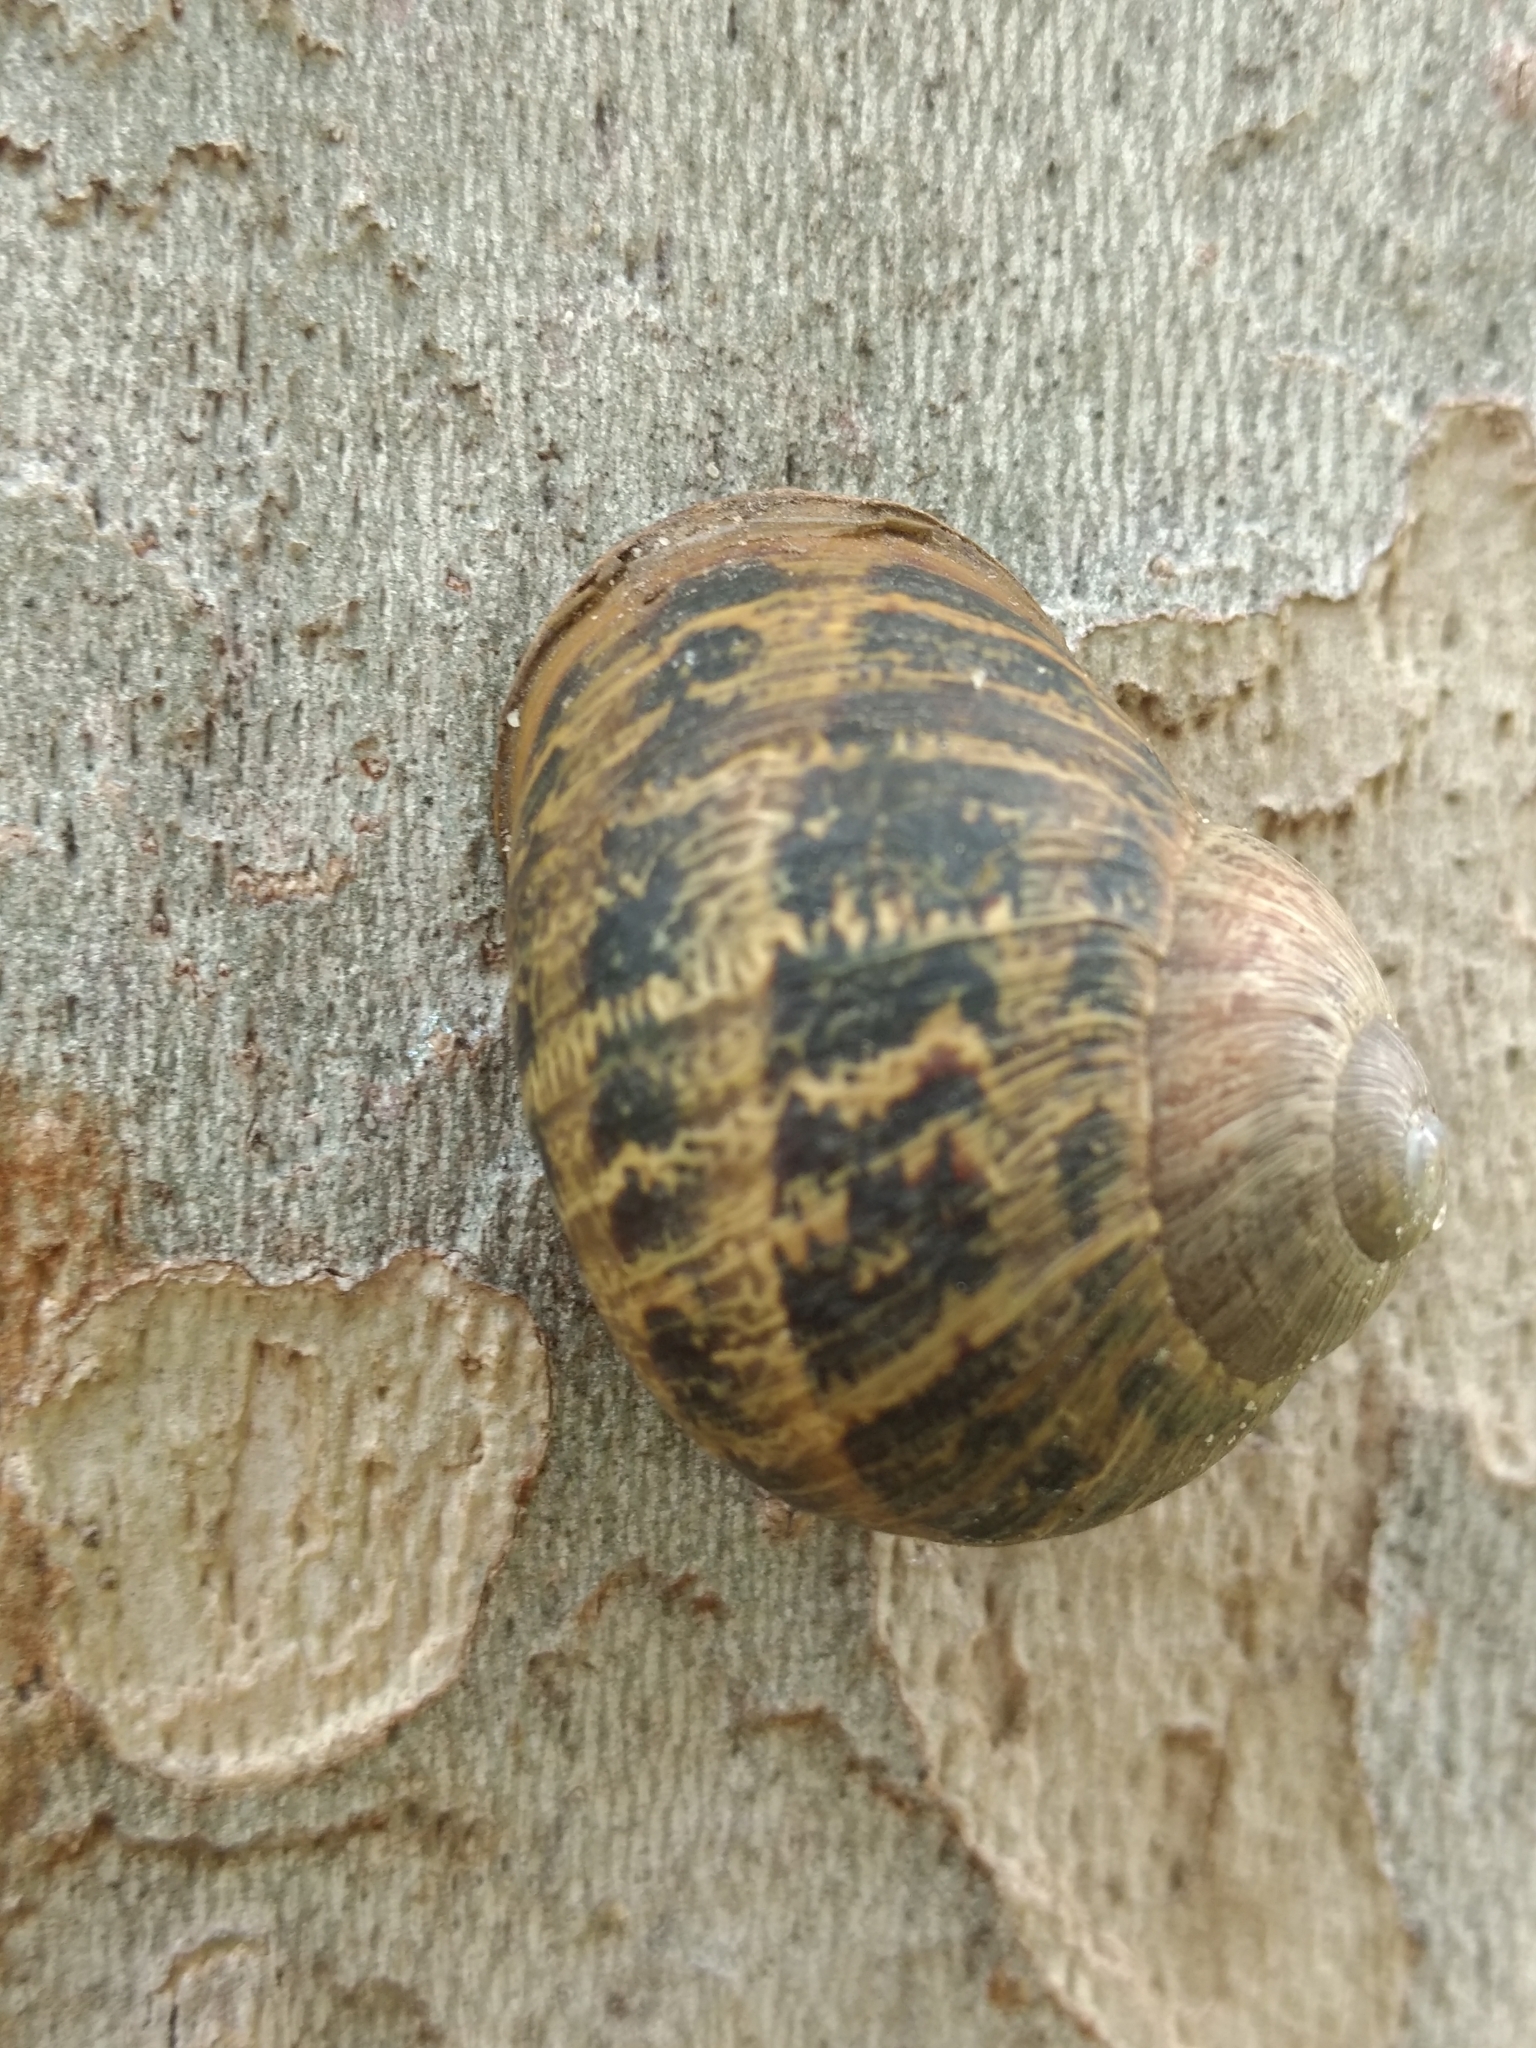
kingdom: Animalia
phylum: Mollusca
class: Gastropoda
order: Stylommatophora
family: Helicidae
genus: Cornu
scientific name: Cornu aspersum
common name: Brown garden snail
